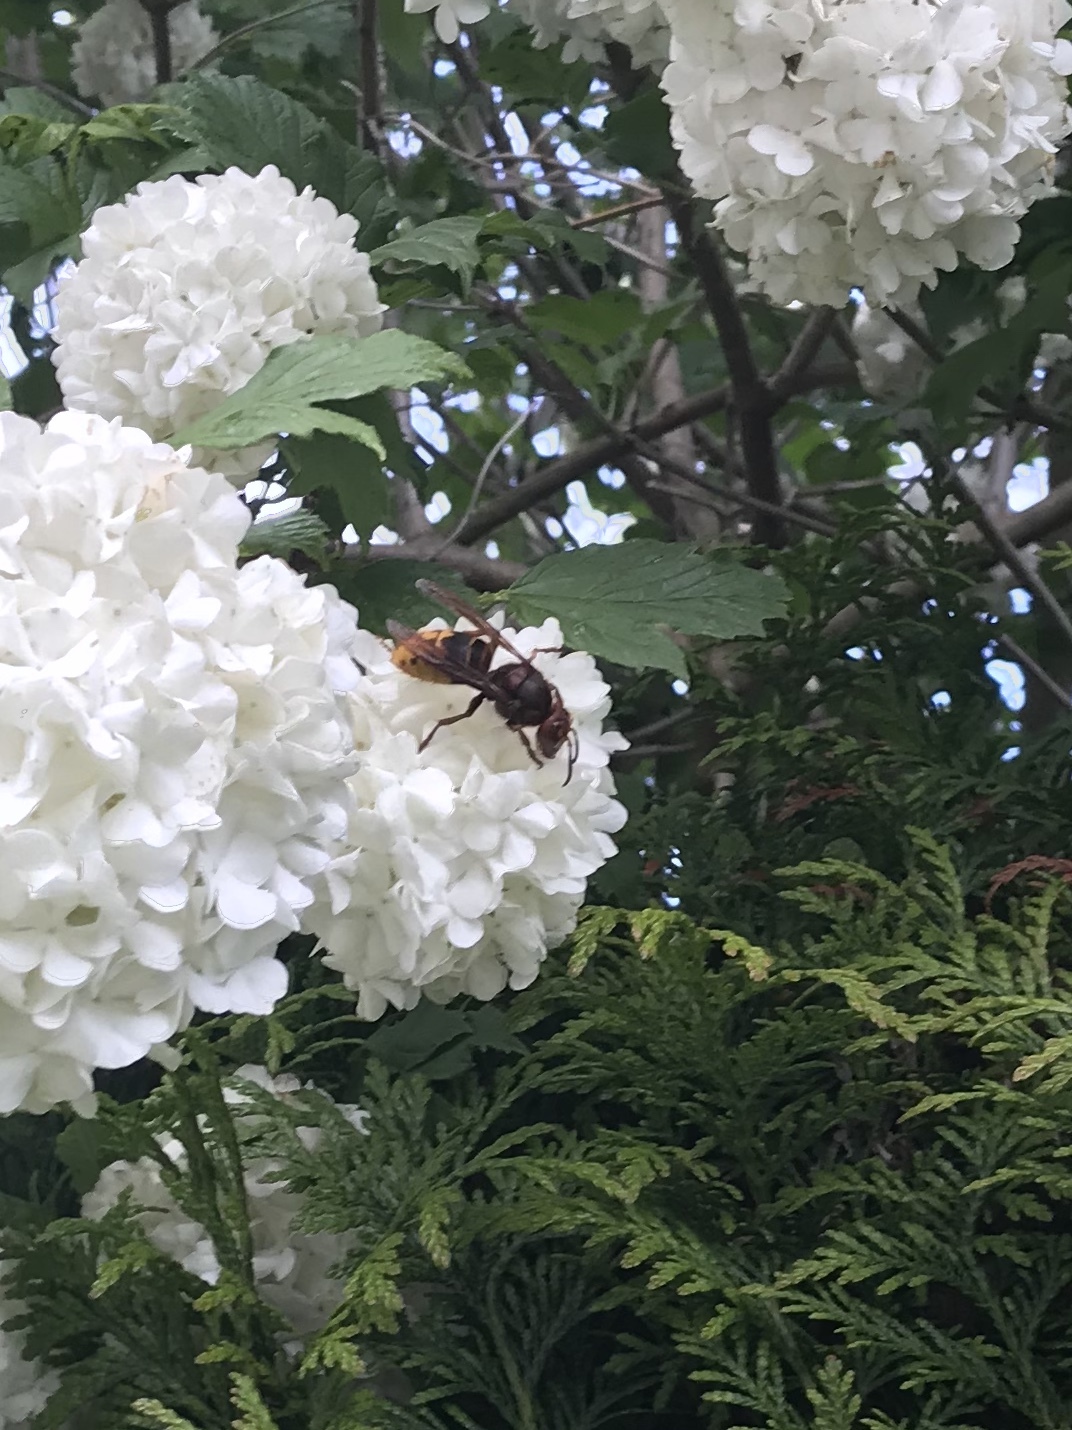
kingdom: Animalia
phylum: Arthropoda
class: Insecta
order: Hymenoptera
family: Vespidae
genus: Vespa
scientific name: Vespa crabro
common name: Hornet
